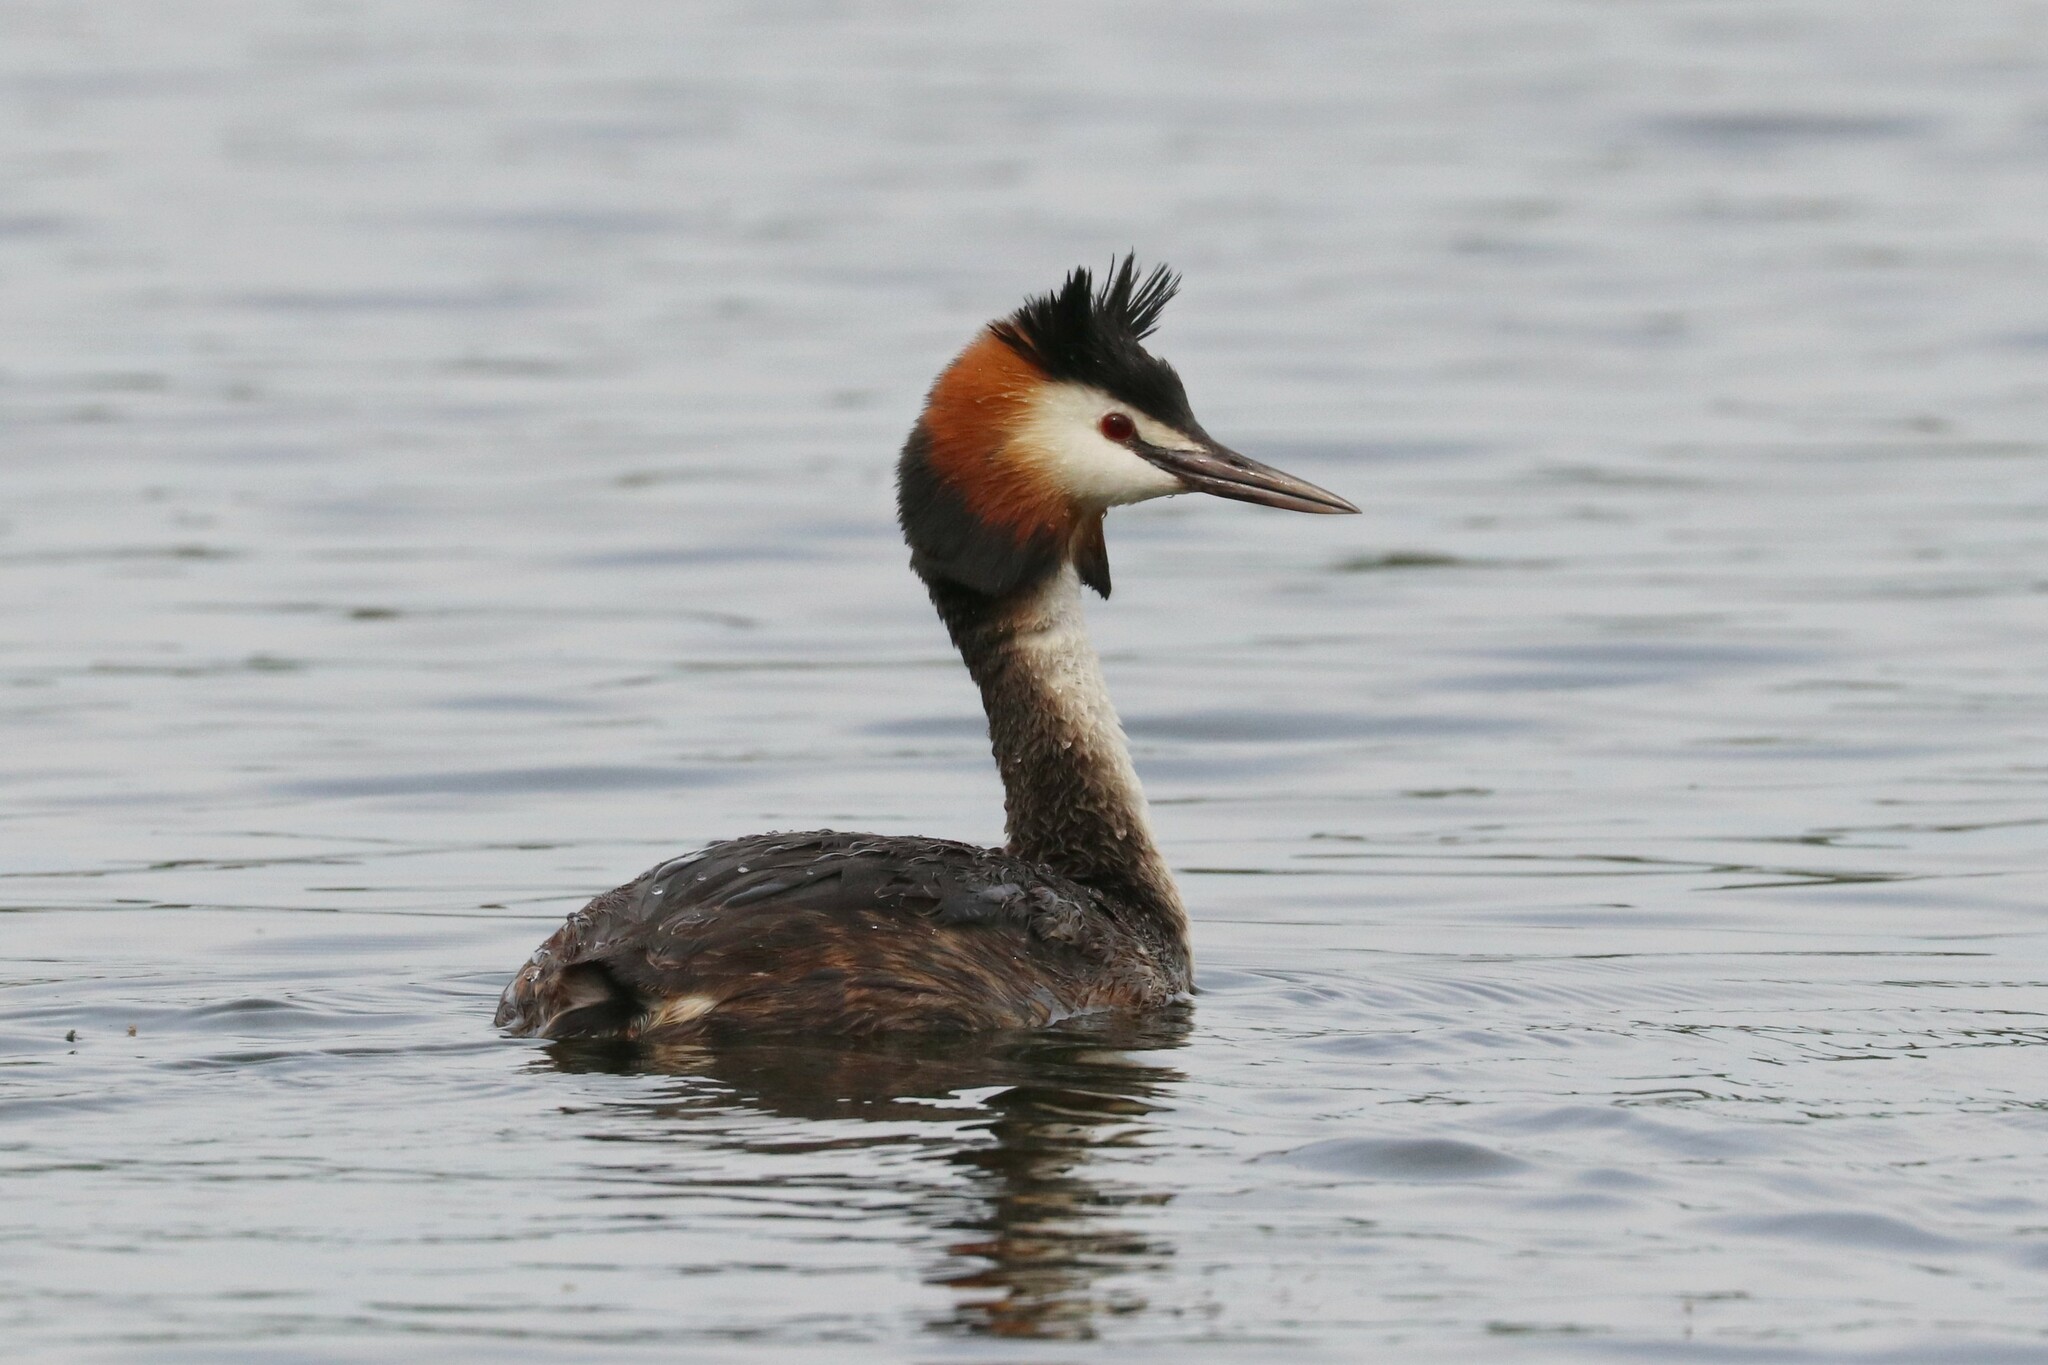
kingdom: Animalia
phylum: Chordata
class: Aves
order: Podicipediformes
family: Podicipedidae
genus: Podiceps
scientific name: Podiceps cristatus
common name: Great crested grebe
